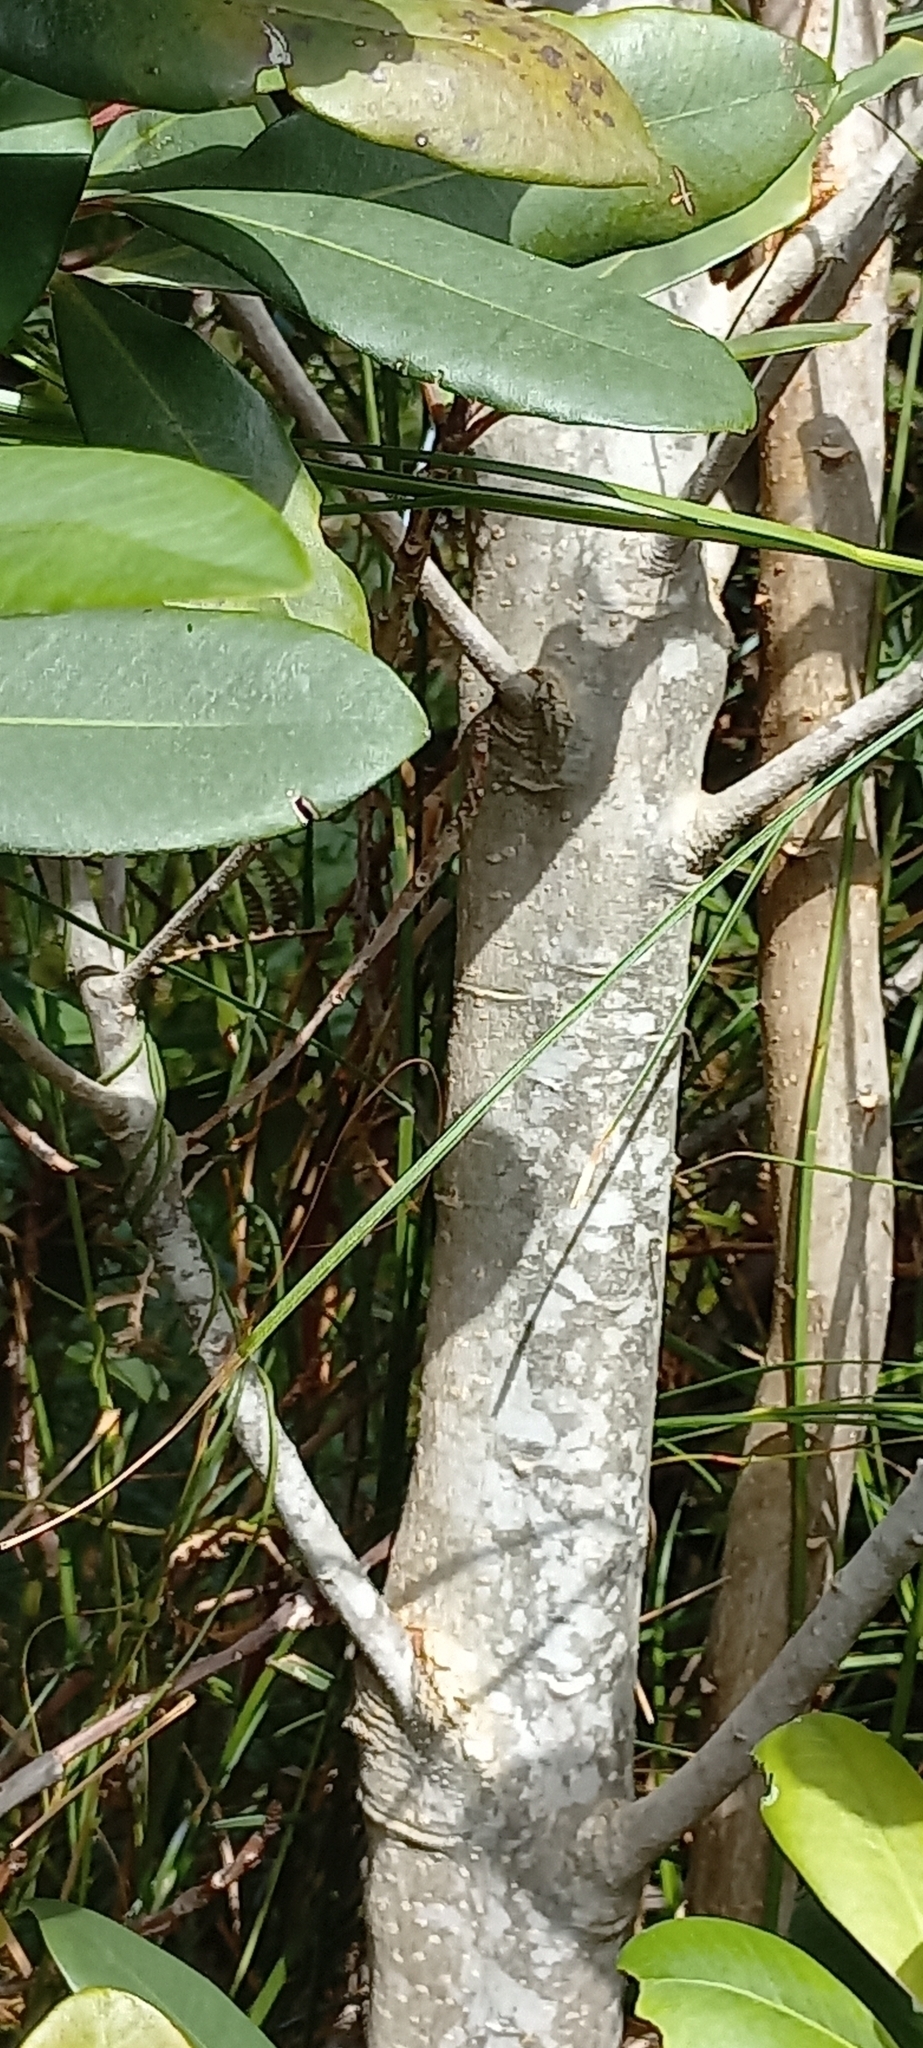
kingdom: Plantae
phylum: Tracheophyta
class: Magnoliopsida
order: Ericales
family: Primulaceae
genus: Myrsine
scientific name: Myrsine melanophloeos
